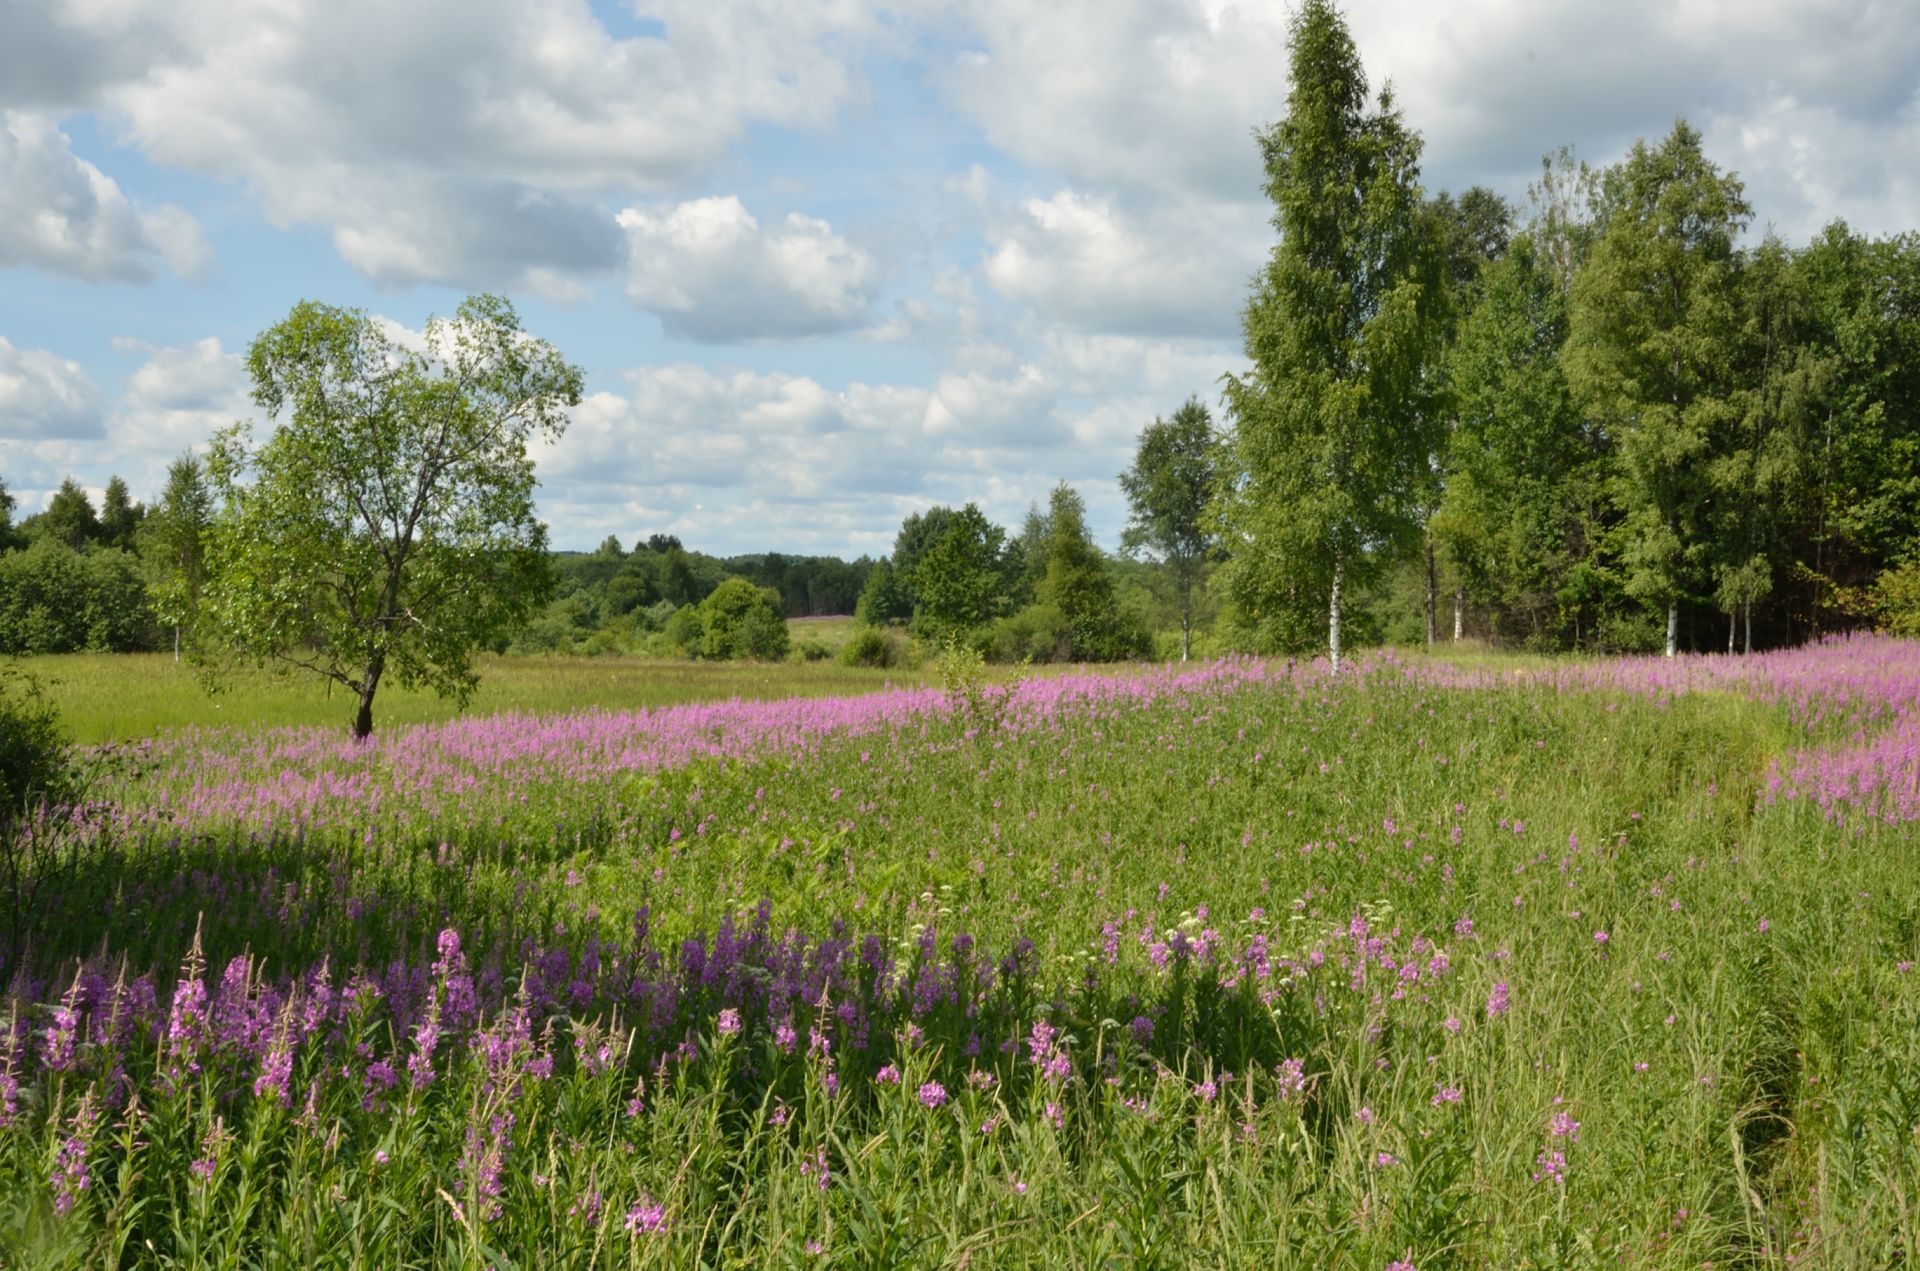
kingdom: Plantae
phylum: Tracheophyta
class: Magnoliopsida
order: Myrtales
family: Onagraceae
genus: Chamaenerion
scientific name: Chamaenerion angustifolium
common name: Fireweed
